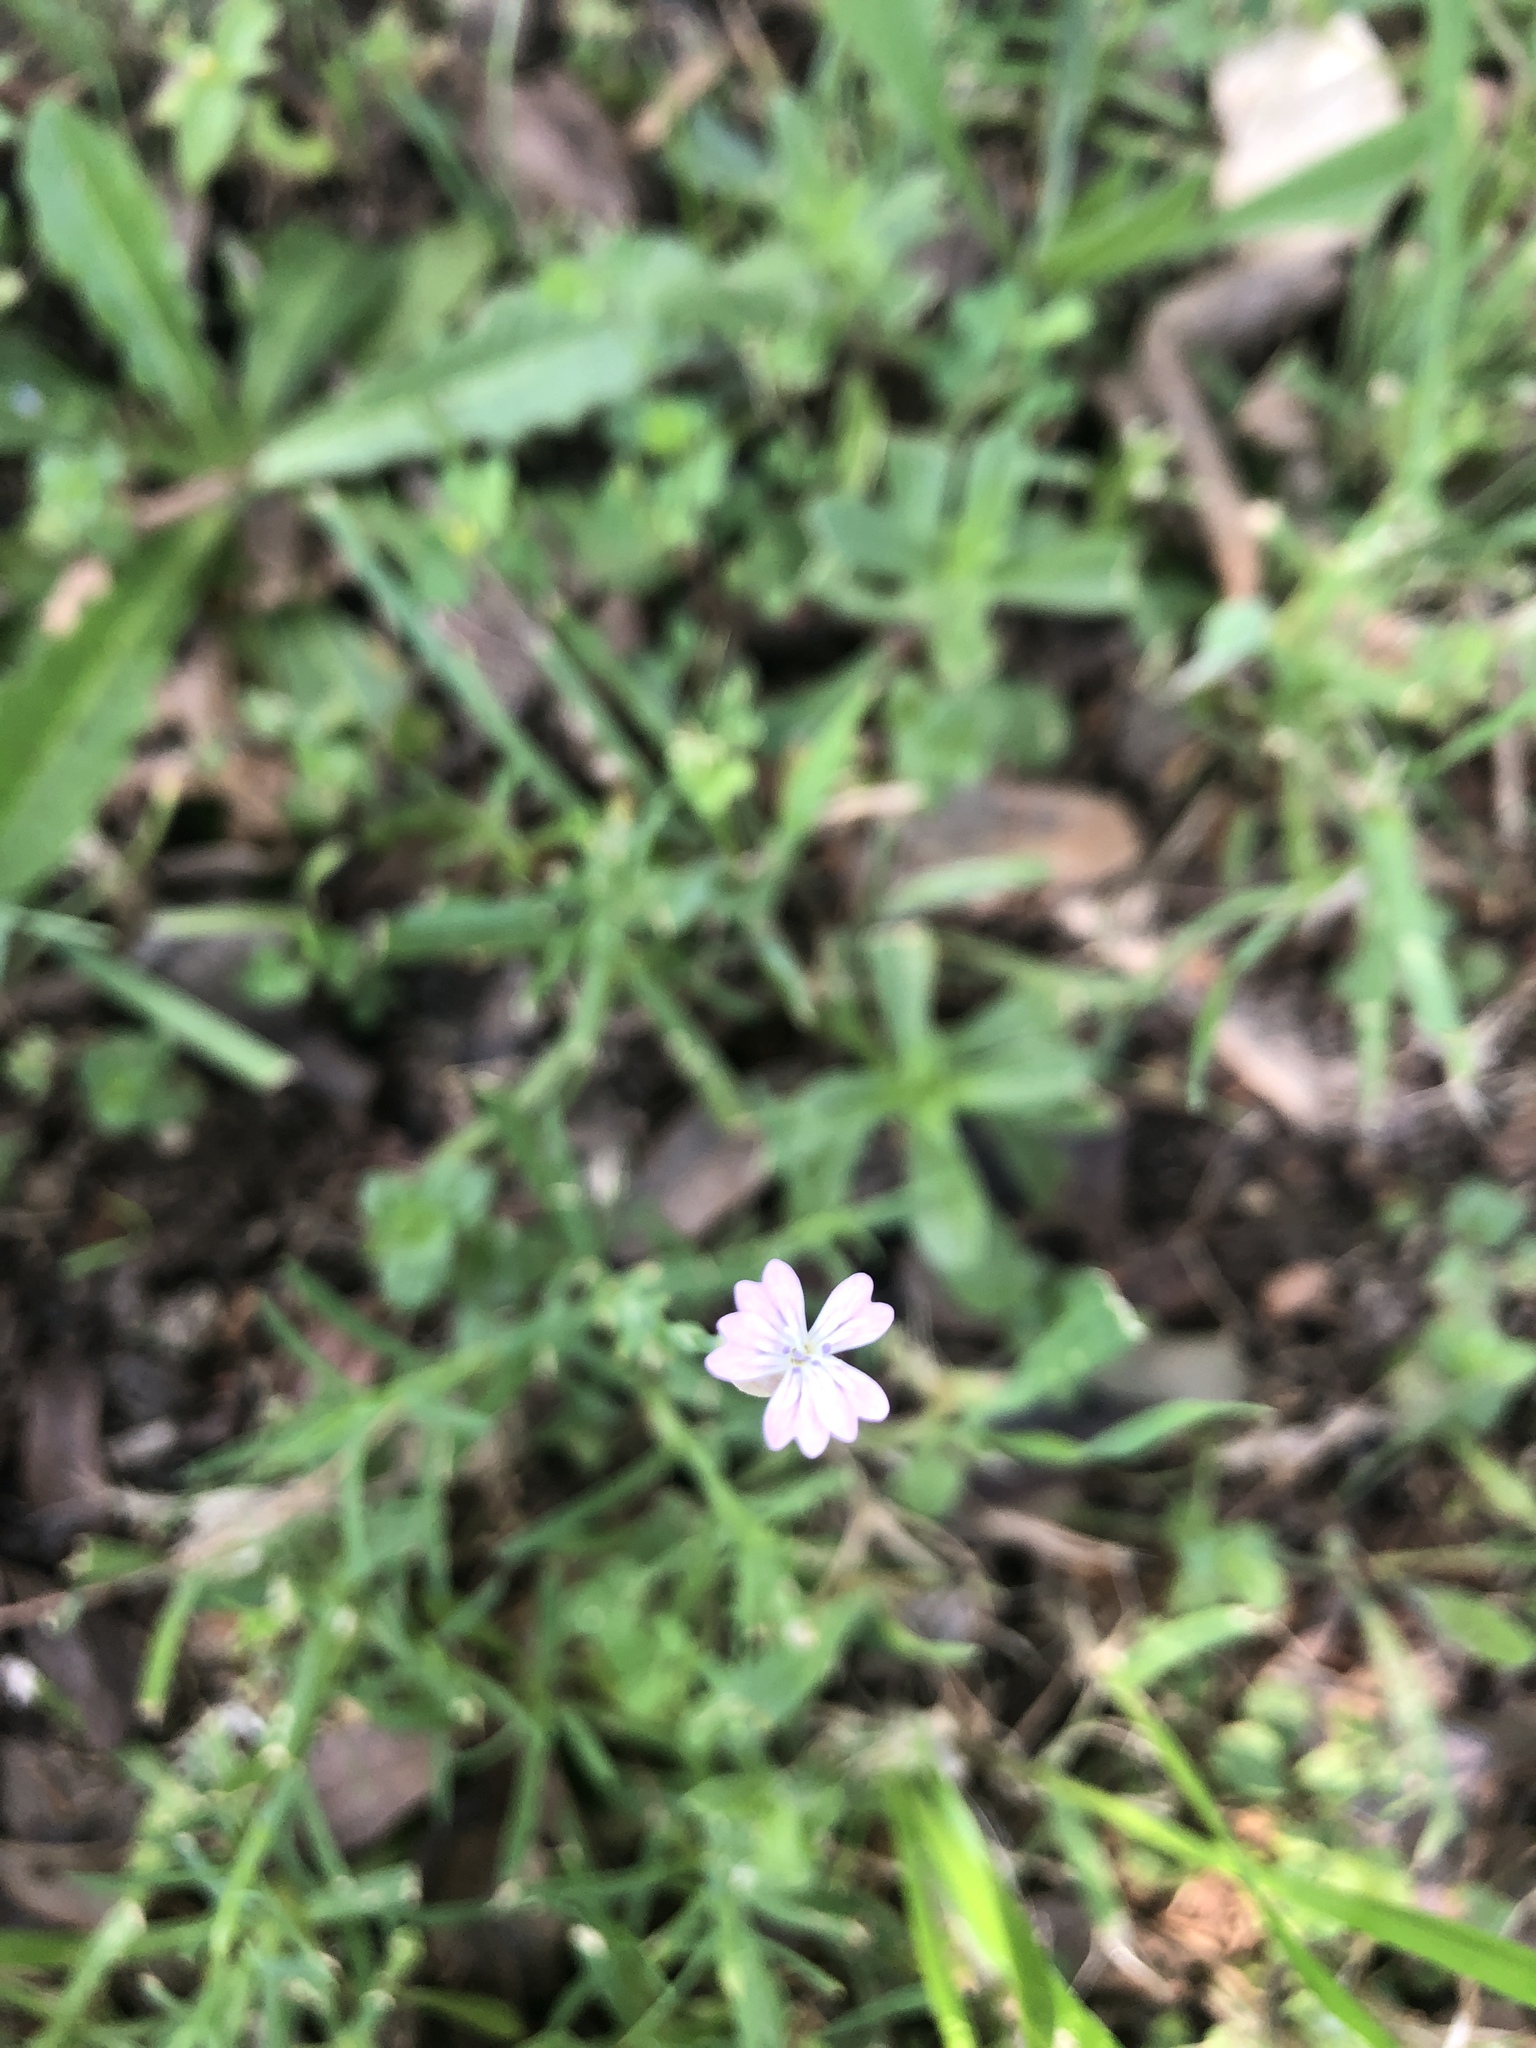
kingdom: Plantae
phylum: Tracheophyta
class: Magnoliopsida
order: Caryophyllales
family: Caryophyllaceae
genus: Petrorhagia
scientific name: Petrorhagia prolifera
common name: Proliferous pink
